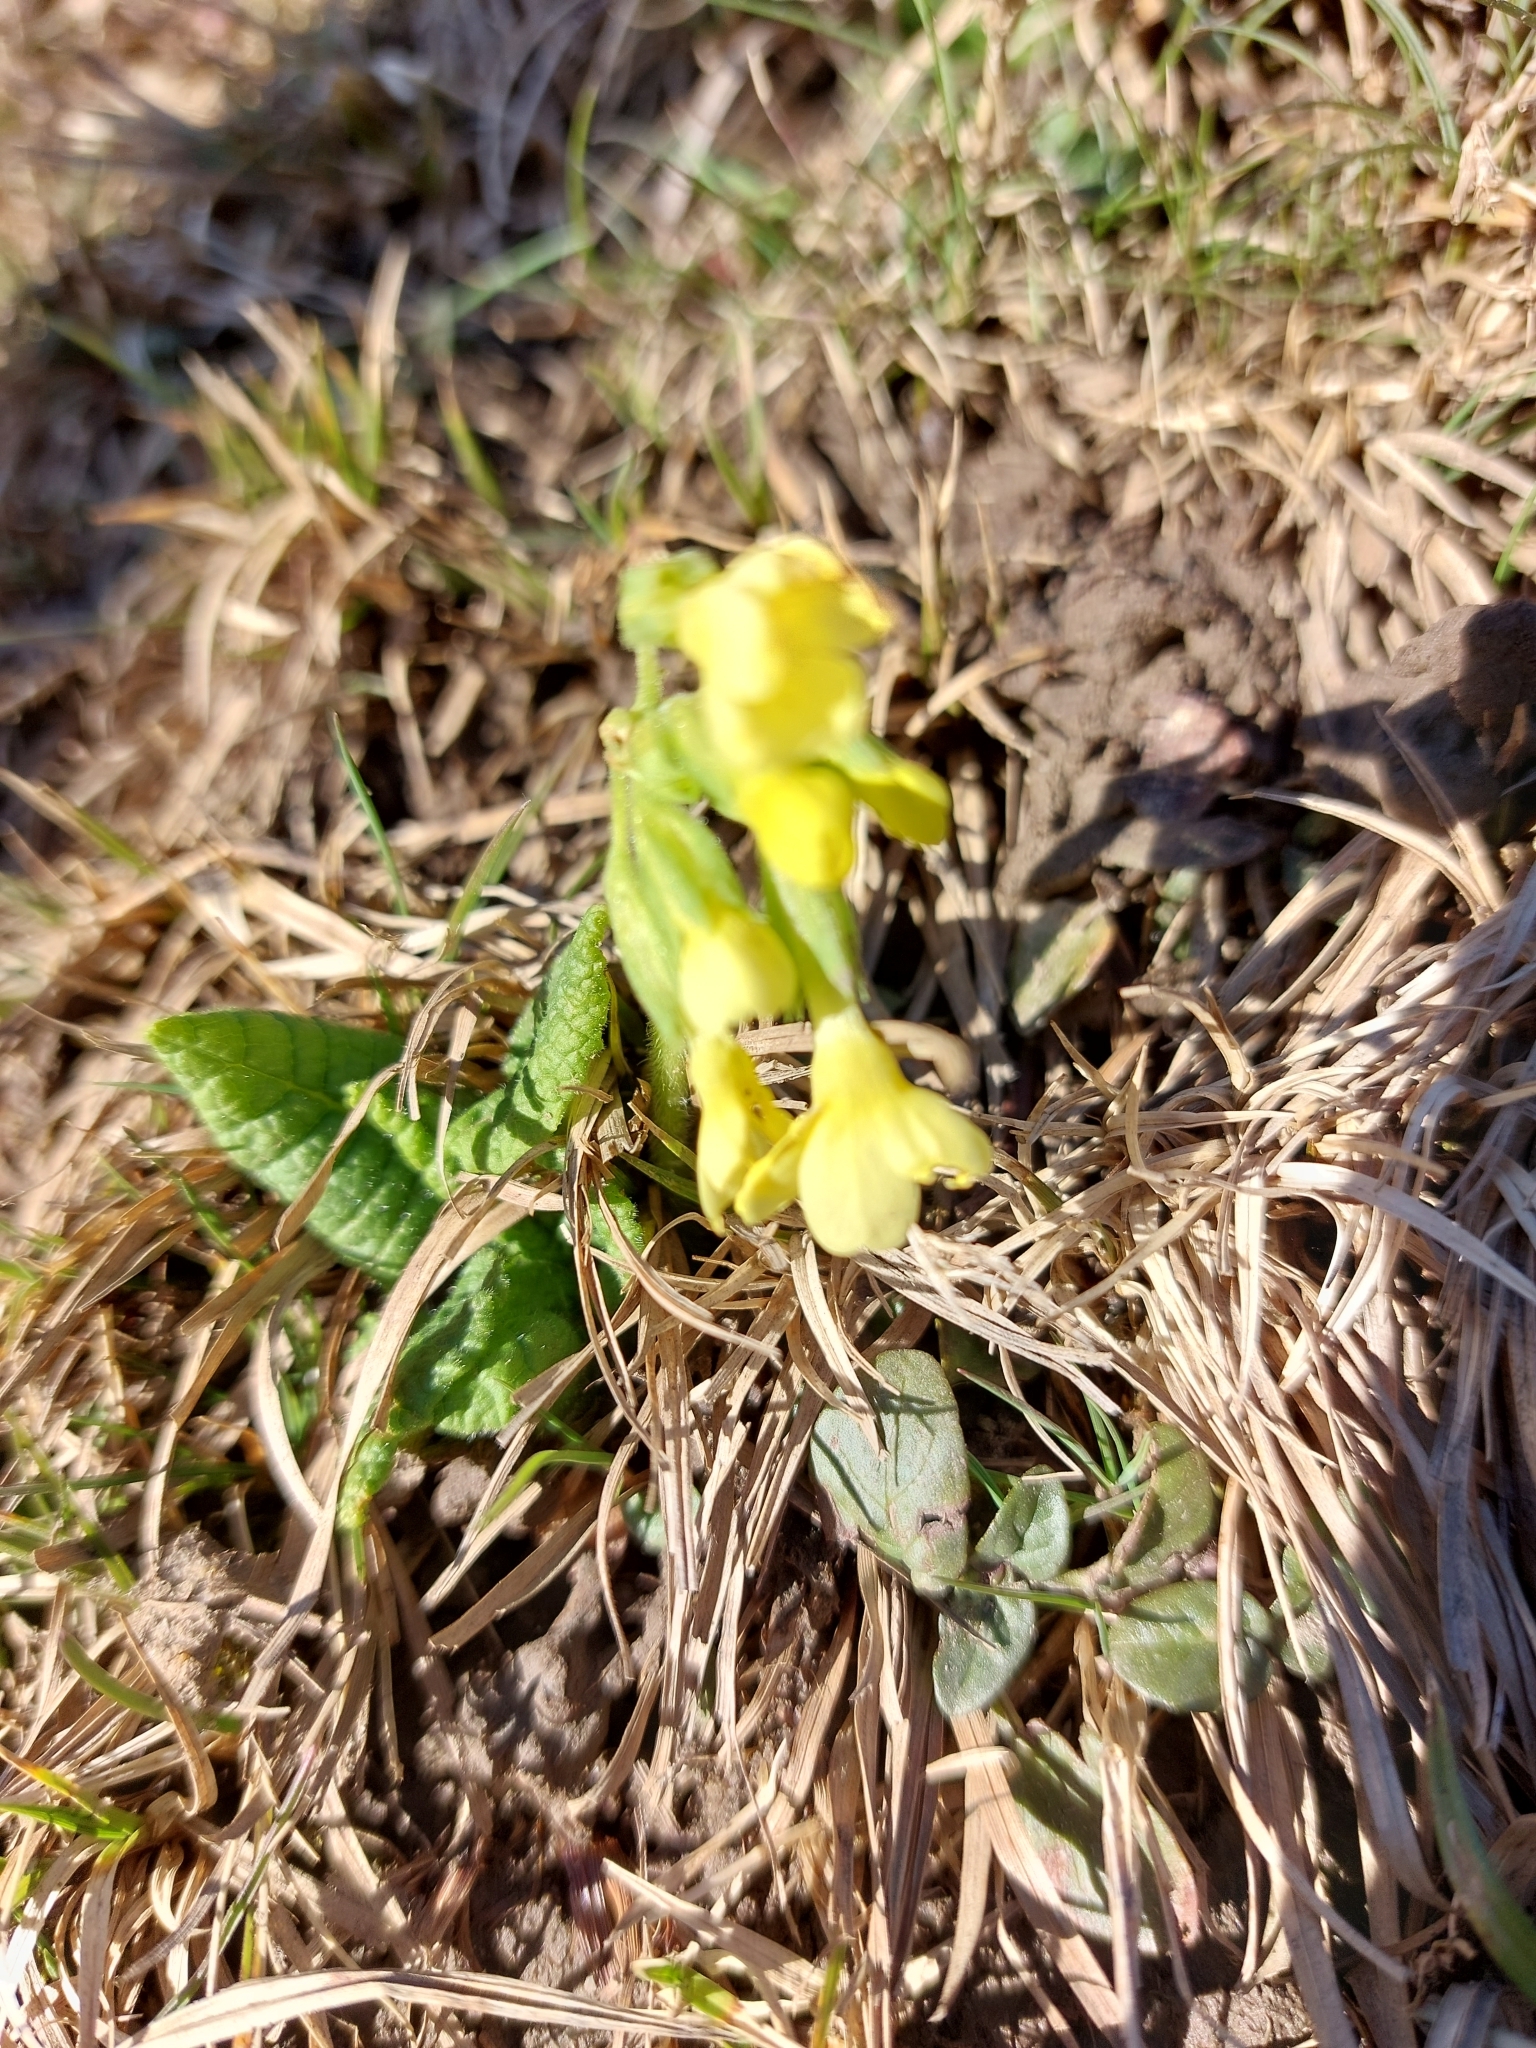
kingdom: Plantae
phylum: Tracheophyta
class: Magnoliopsida
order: Ericales
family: Primulaceae
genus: Primula
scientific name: Primula elatior
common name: Oxlip
